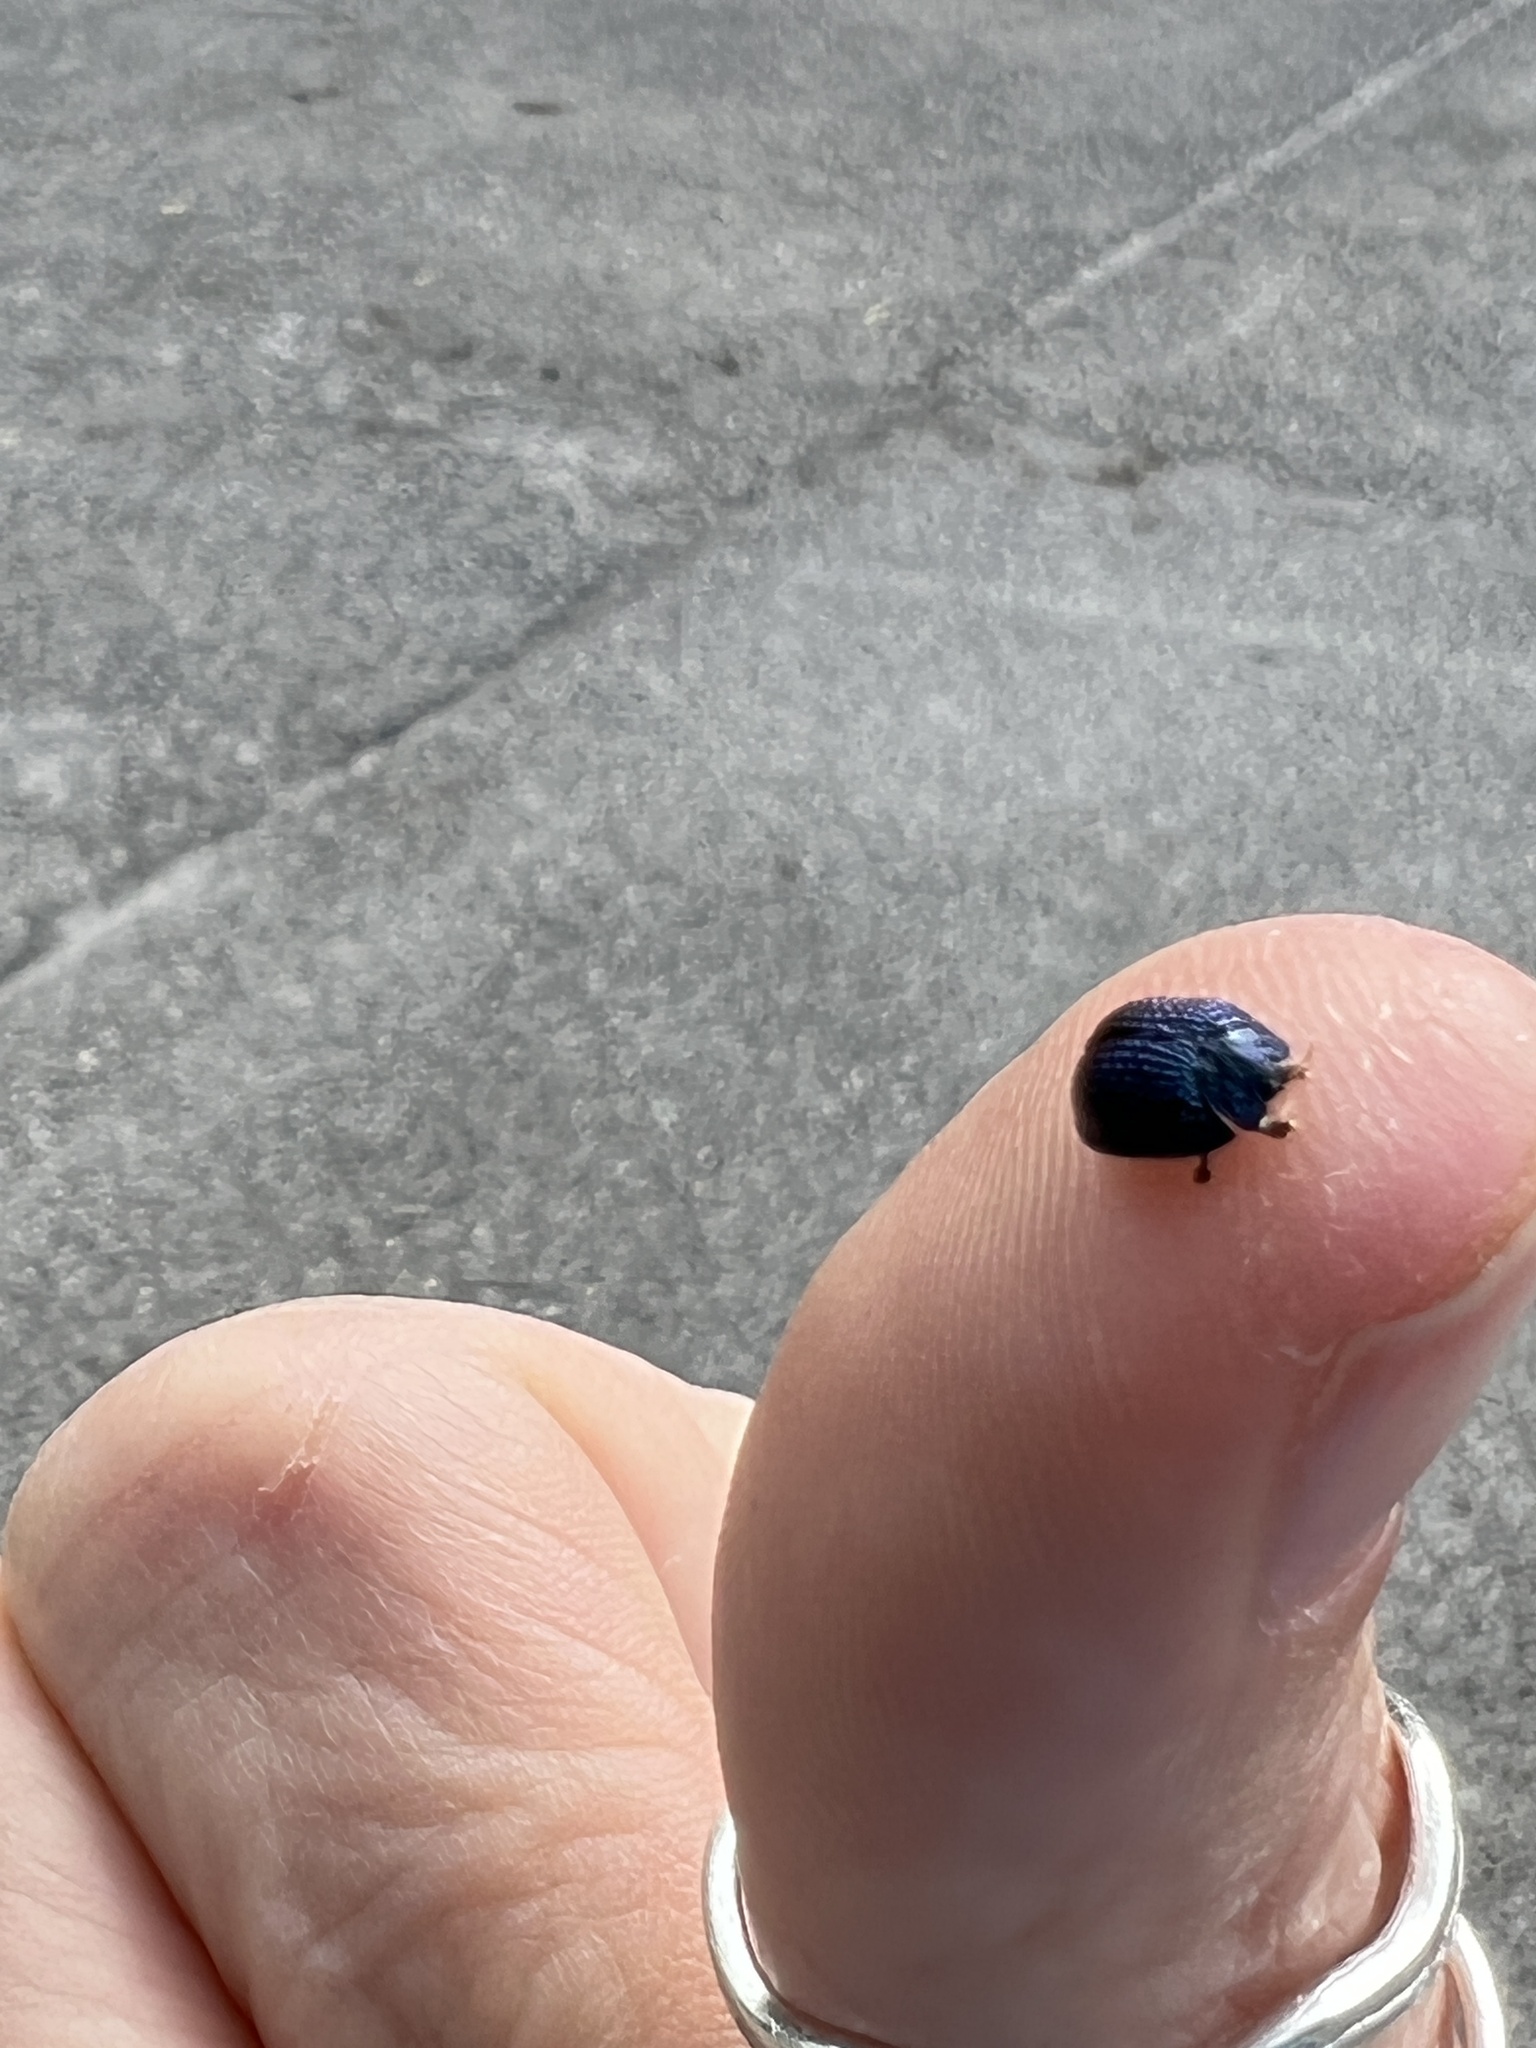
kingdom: Animalia
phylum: Arthropoda
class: Insecta
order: Coleoptera
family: Chrysomelidae
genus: Hemisphaerota
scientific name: Hemisphaerota cyanea
